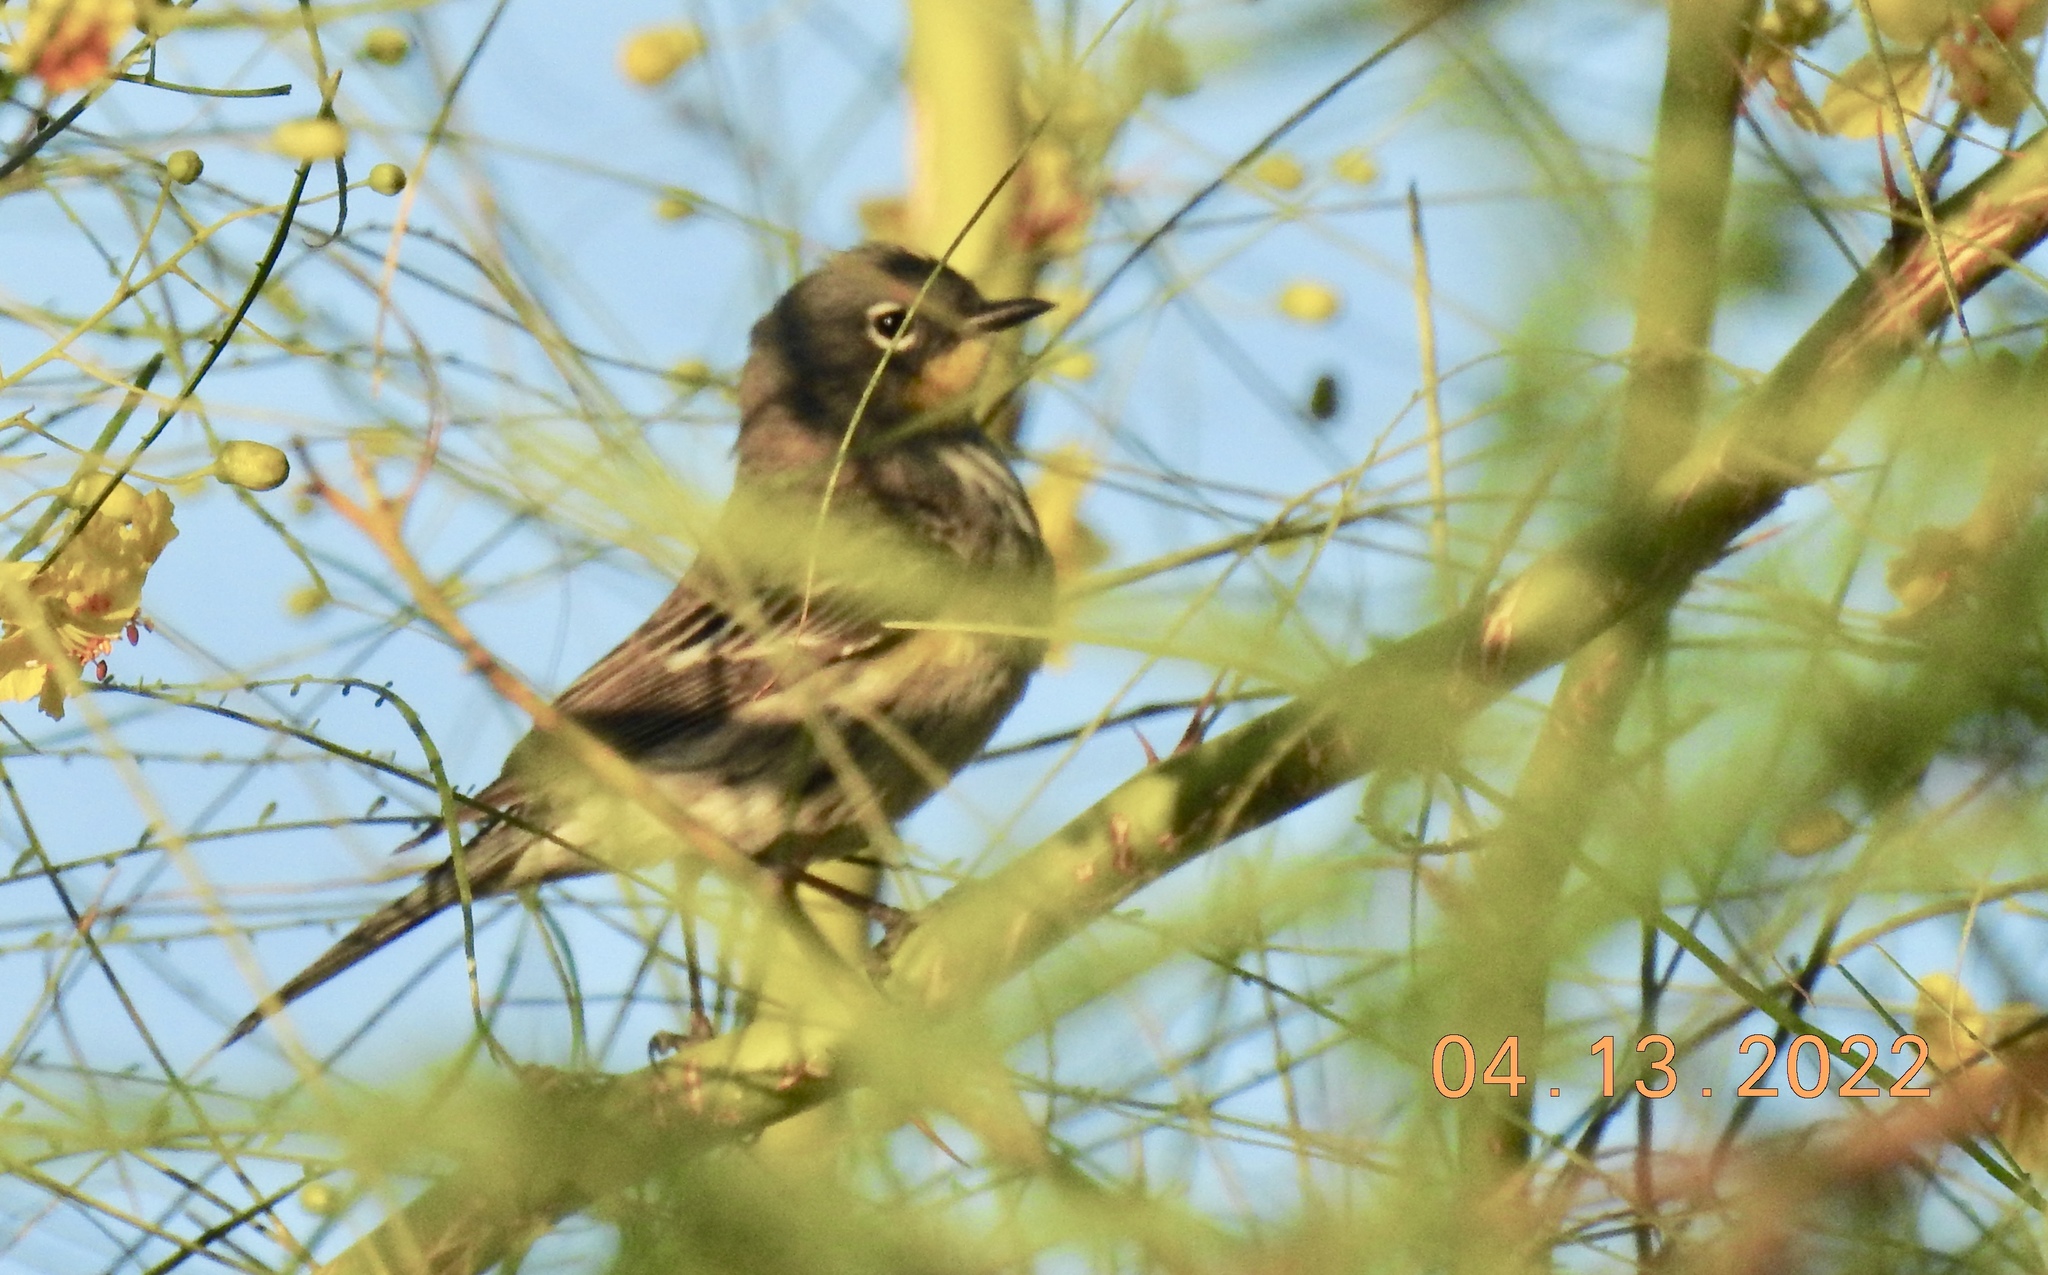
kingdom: Animalia
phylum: Chordata
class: Aves
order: Passeriformes
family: Parulidae
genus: Setophaga
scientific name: Setophaga coronata
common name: Myrtle warbler
